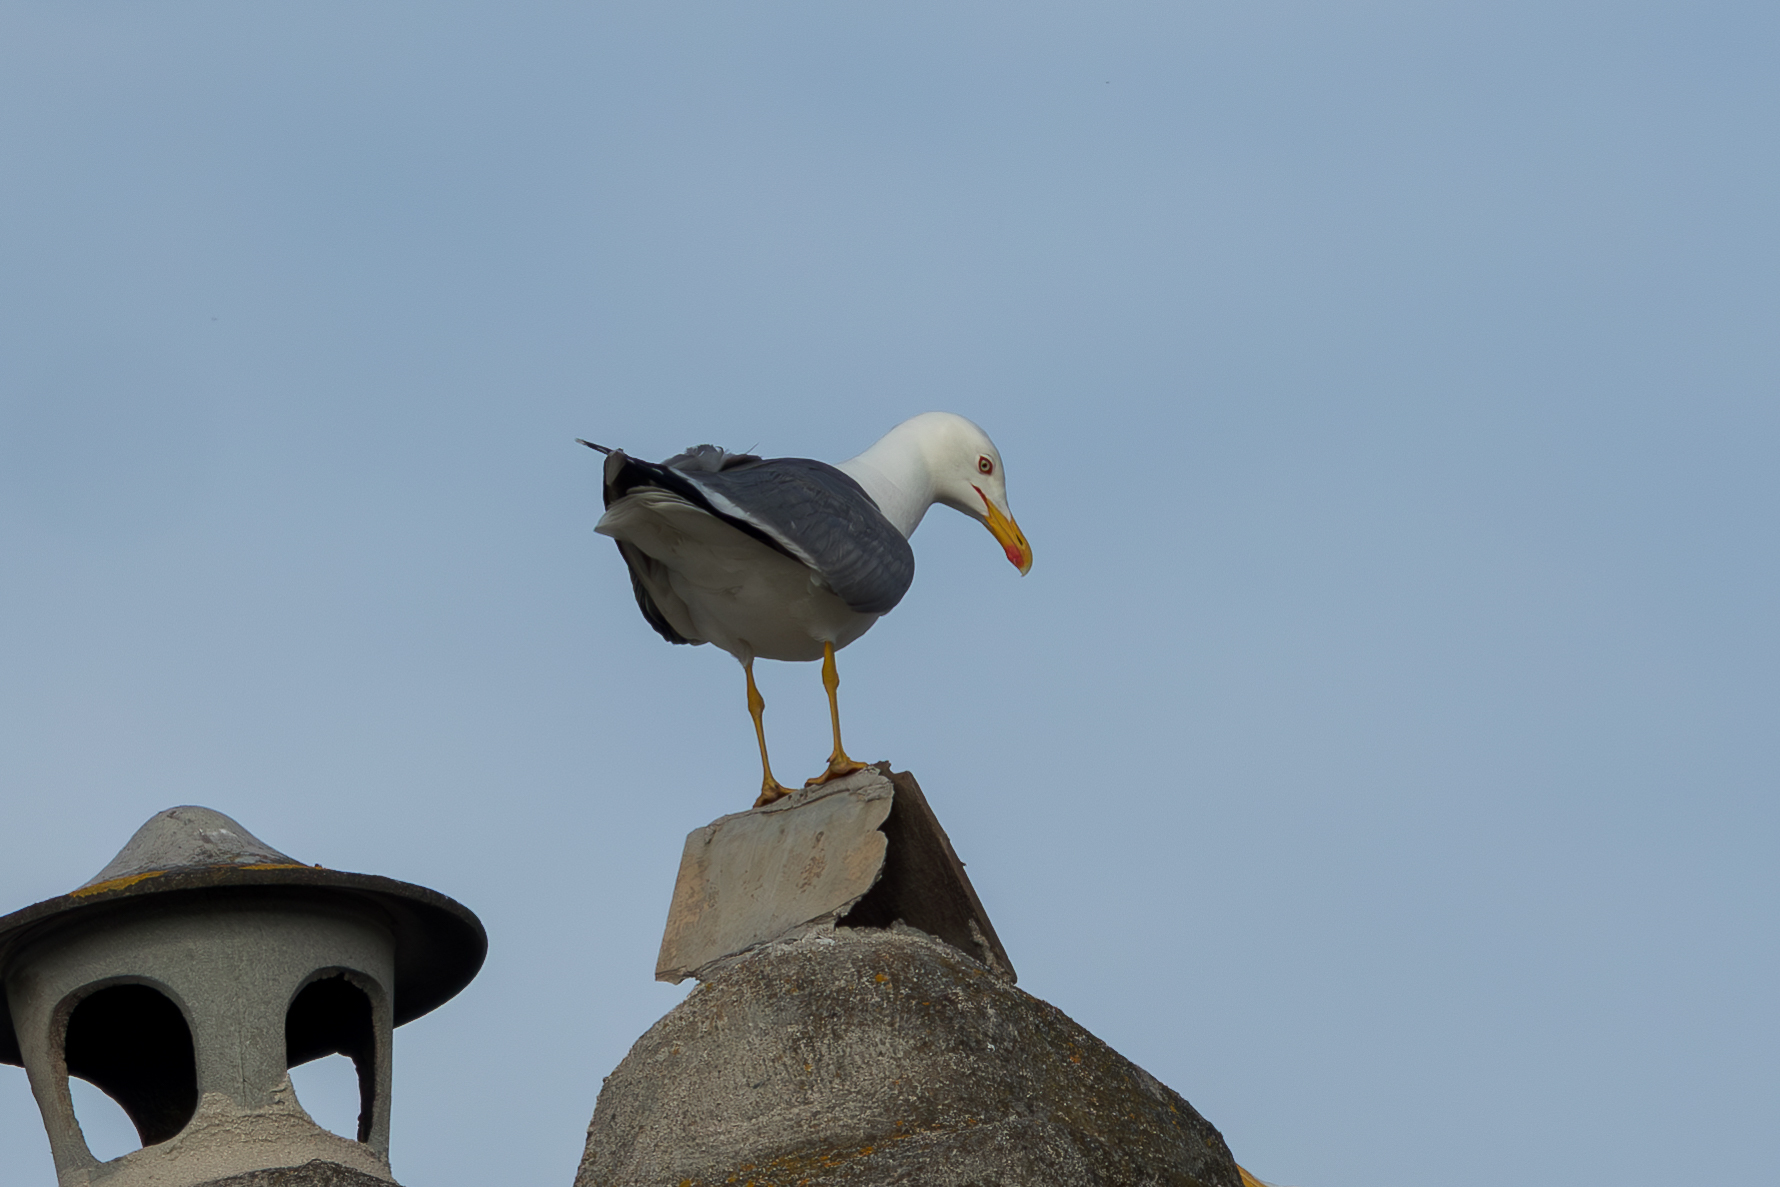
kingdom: Animalia
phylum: Chordata
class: Aves
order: Charadriiformes
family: Laridae
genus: Larus
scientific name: Larus michahellis
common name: Yellow-legged gull
